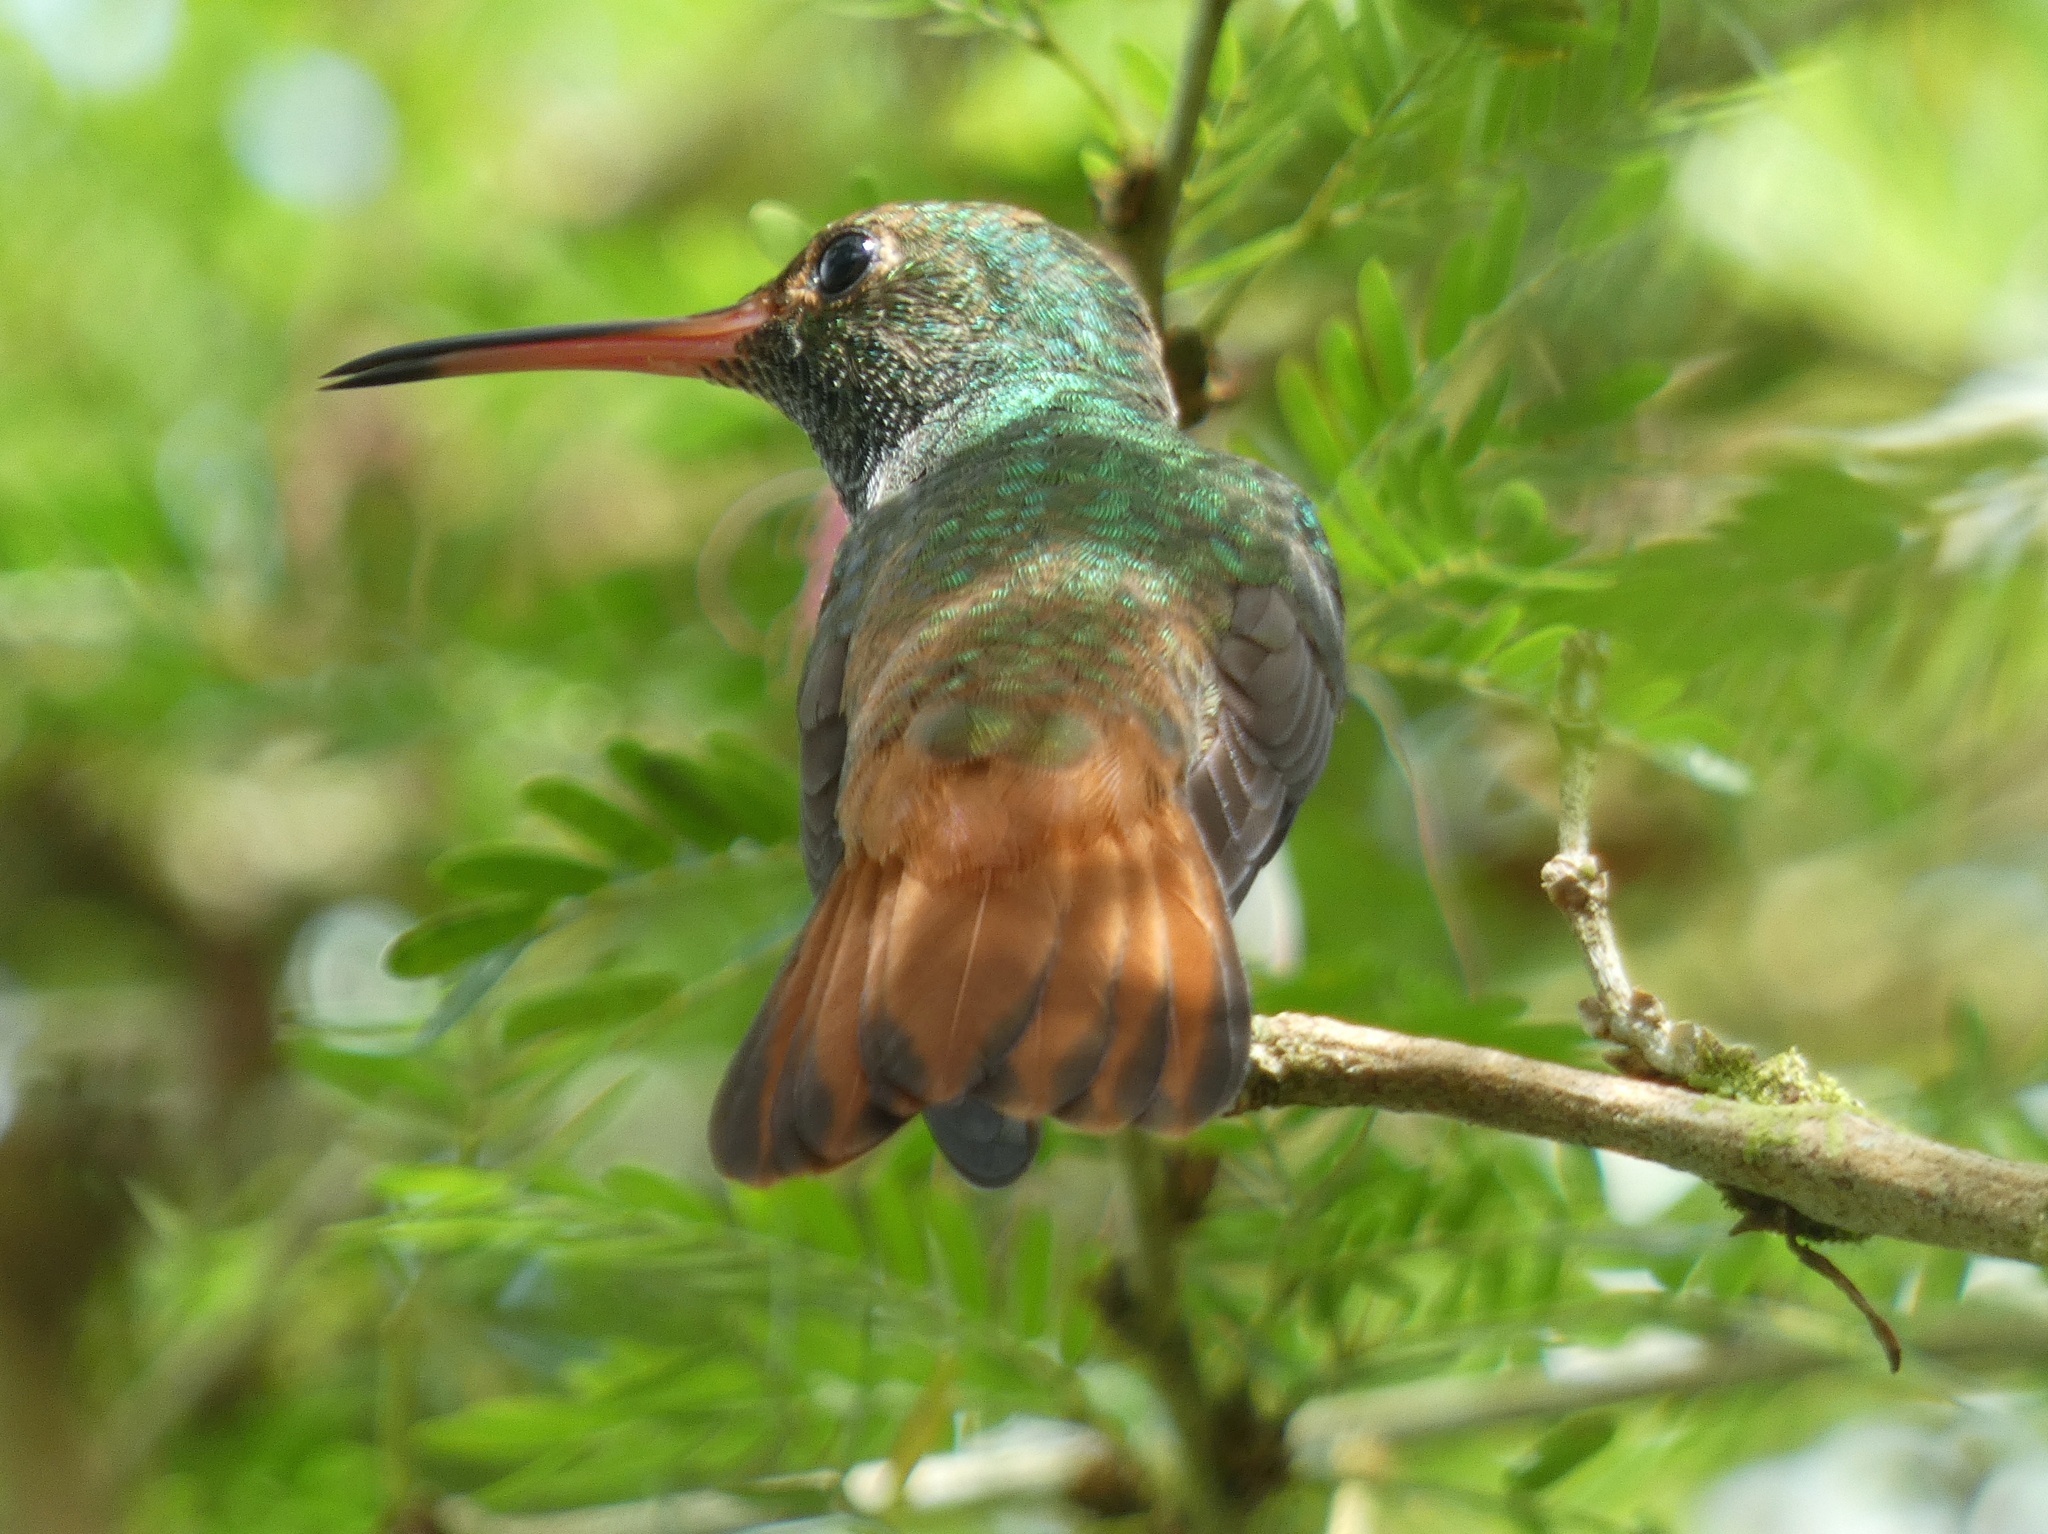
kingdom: Animalia
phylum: Chordata
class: Aves
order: Apodiformes
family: Trochilidae
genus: Amazilia
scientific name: Amazilia tzacatl
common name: Rufous-tailed hummingbird
